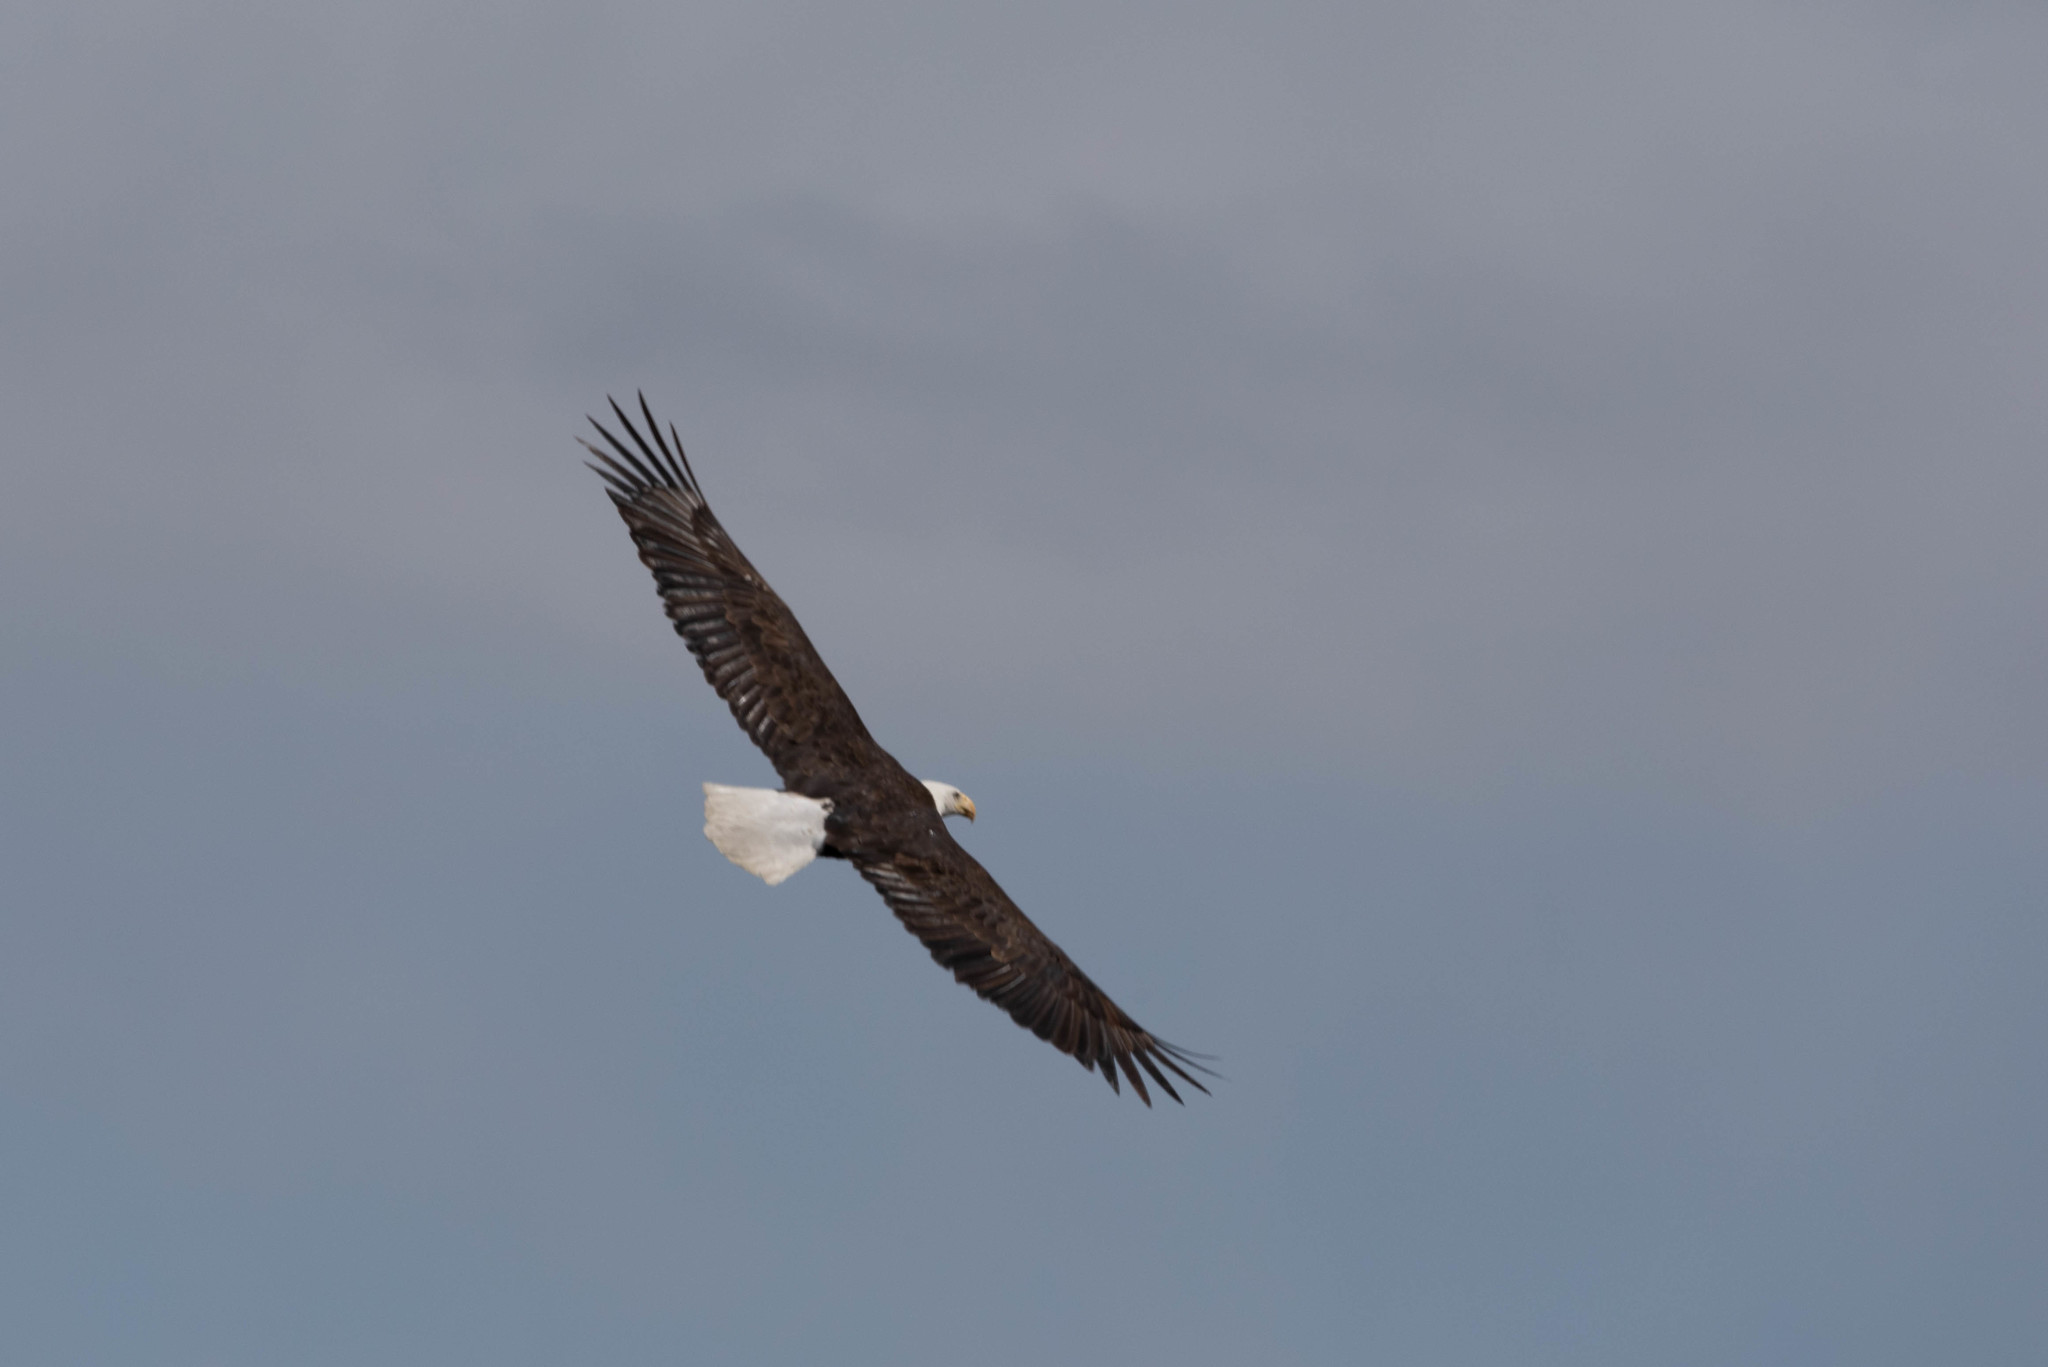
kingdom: Animalia
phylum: Chordata
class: Aves
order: Accipitriformes
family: Accipitridae
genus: Haliaeetus
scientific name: Haliaeetus leucocephalus
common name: Bald eagle
